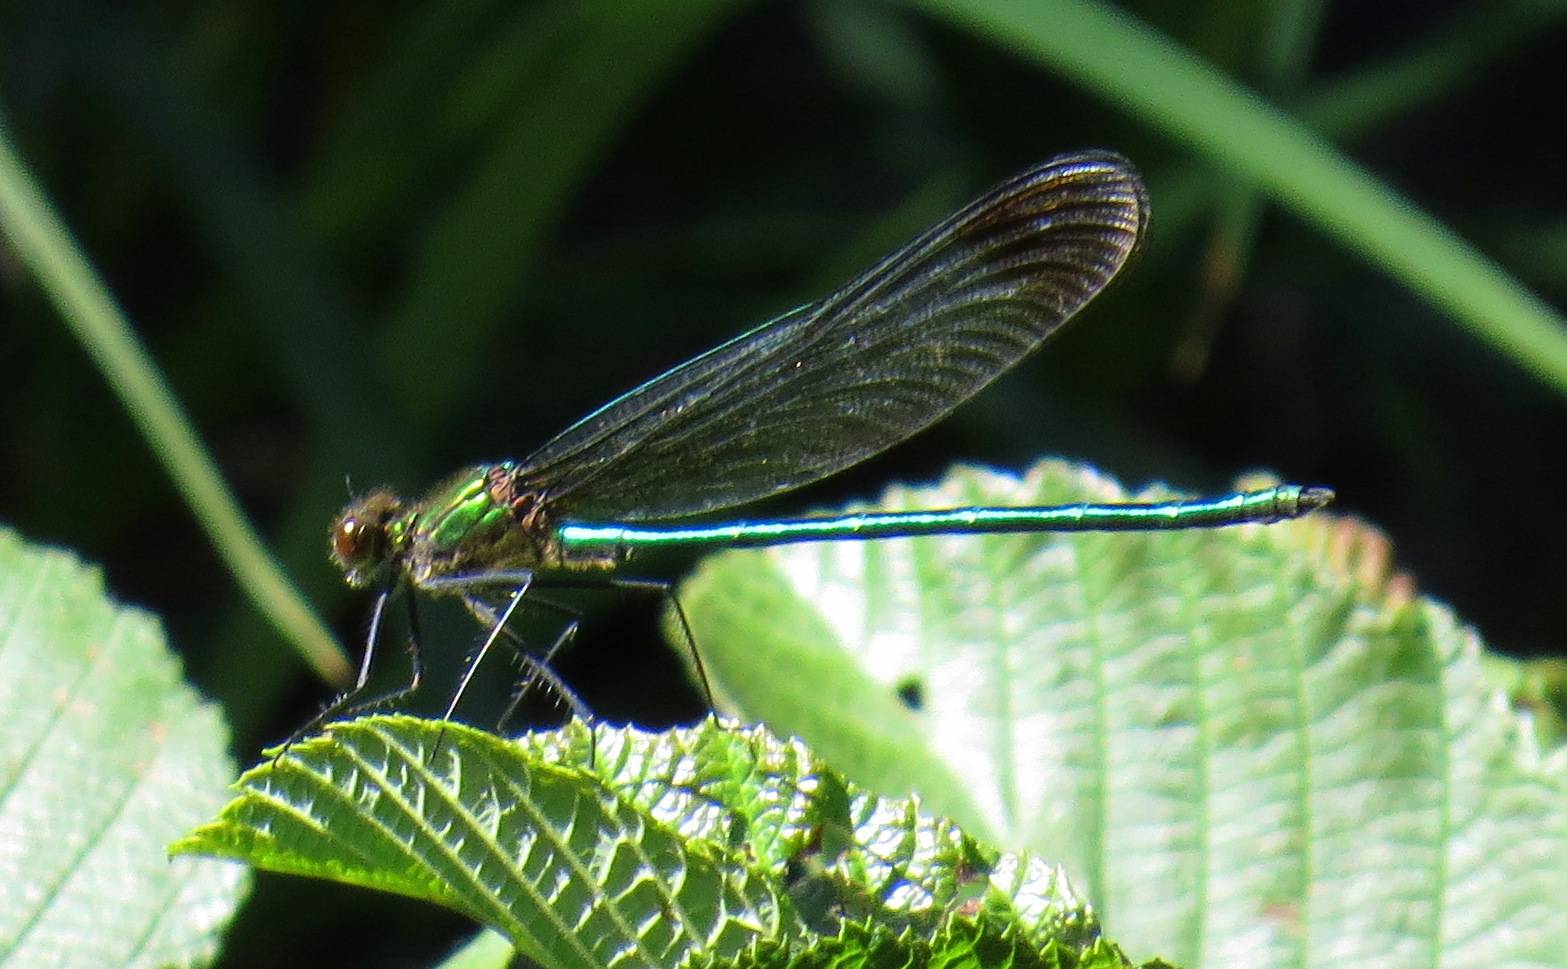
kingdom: Animalia
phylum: Arthropoda
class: Insecta
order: Odonata
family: Calopterygidae
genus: Calopteryx
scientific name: Calopteryx amata
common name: Superb jewelwing
